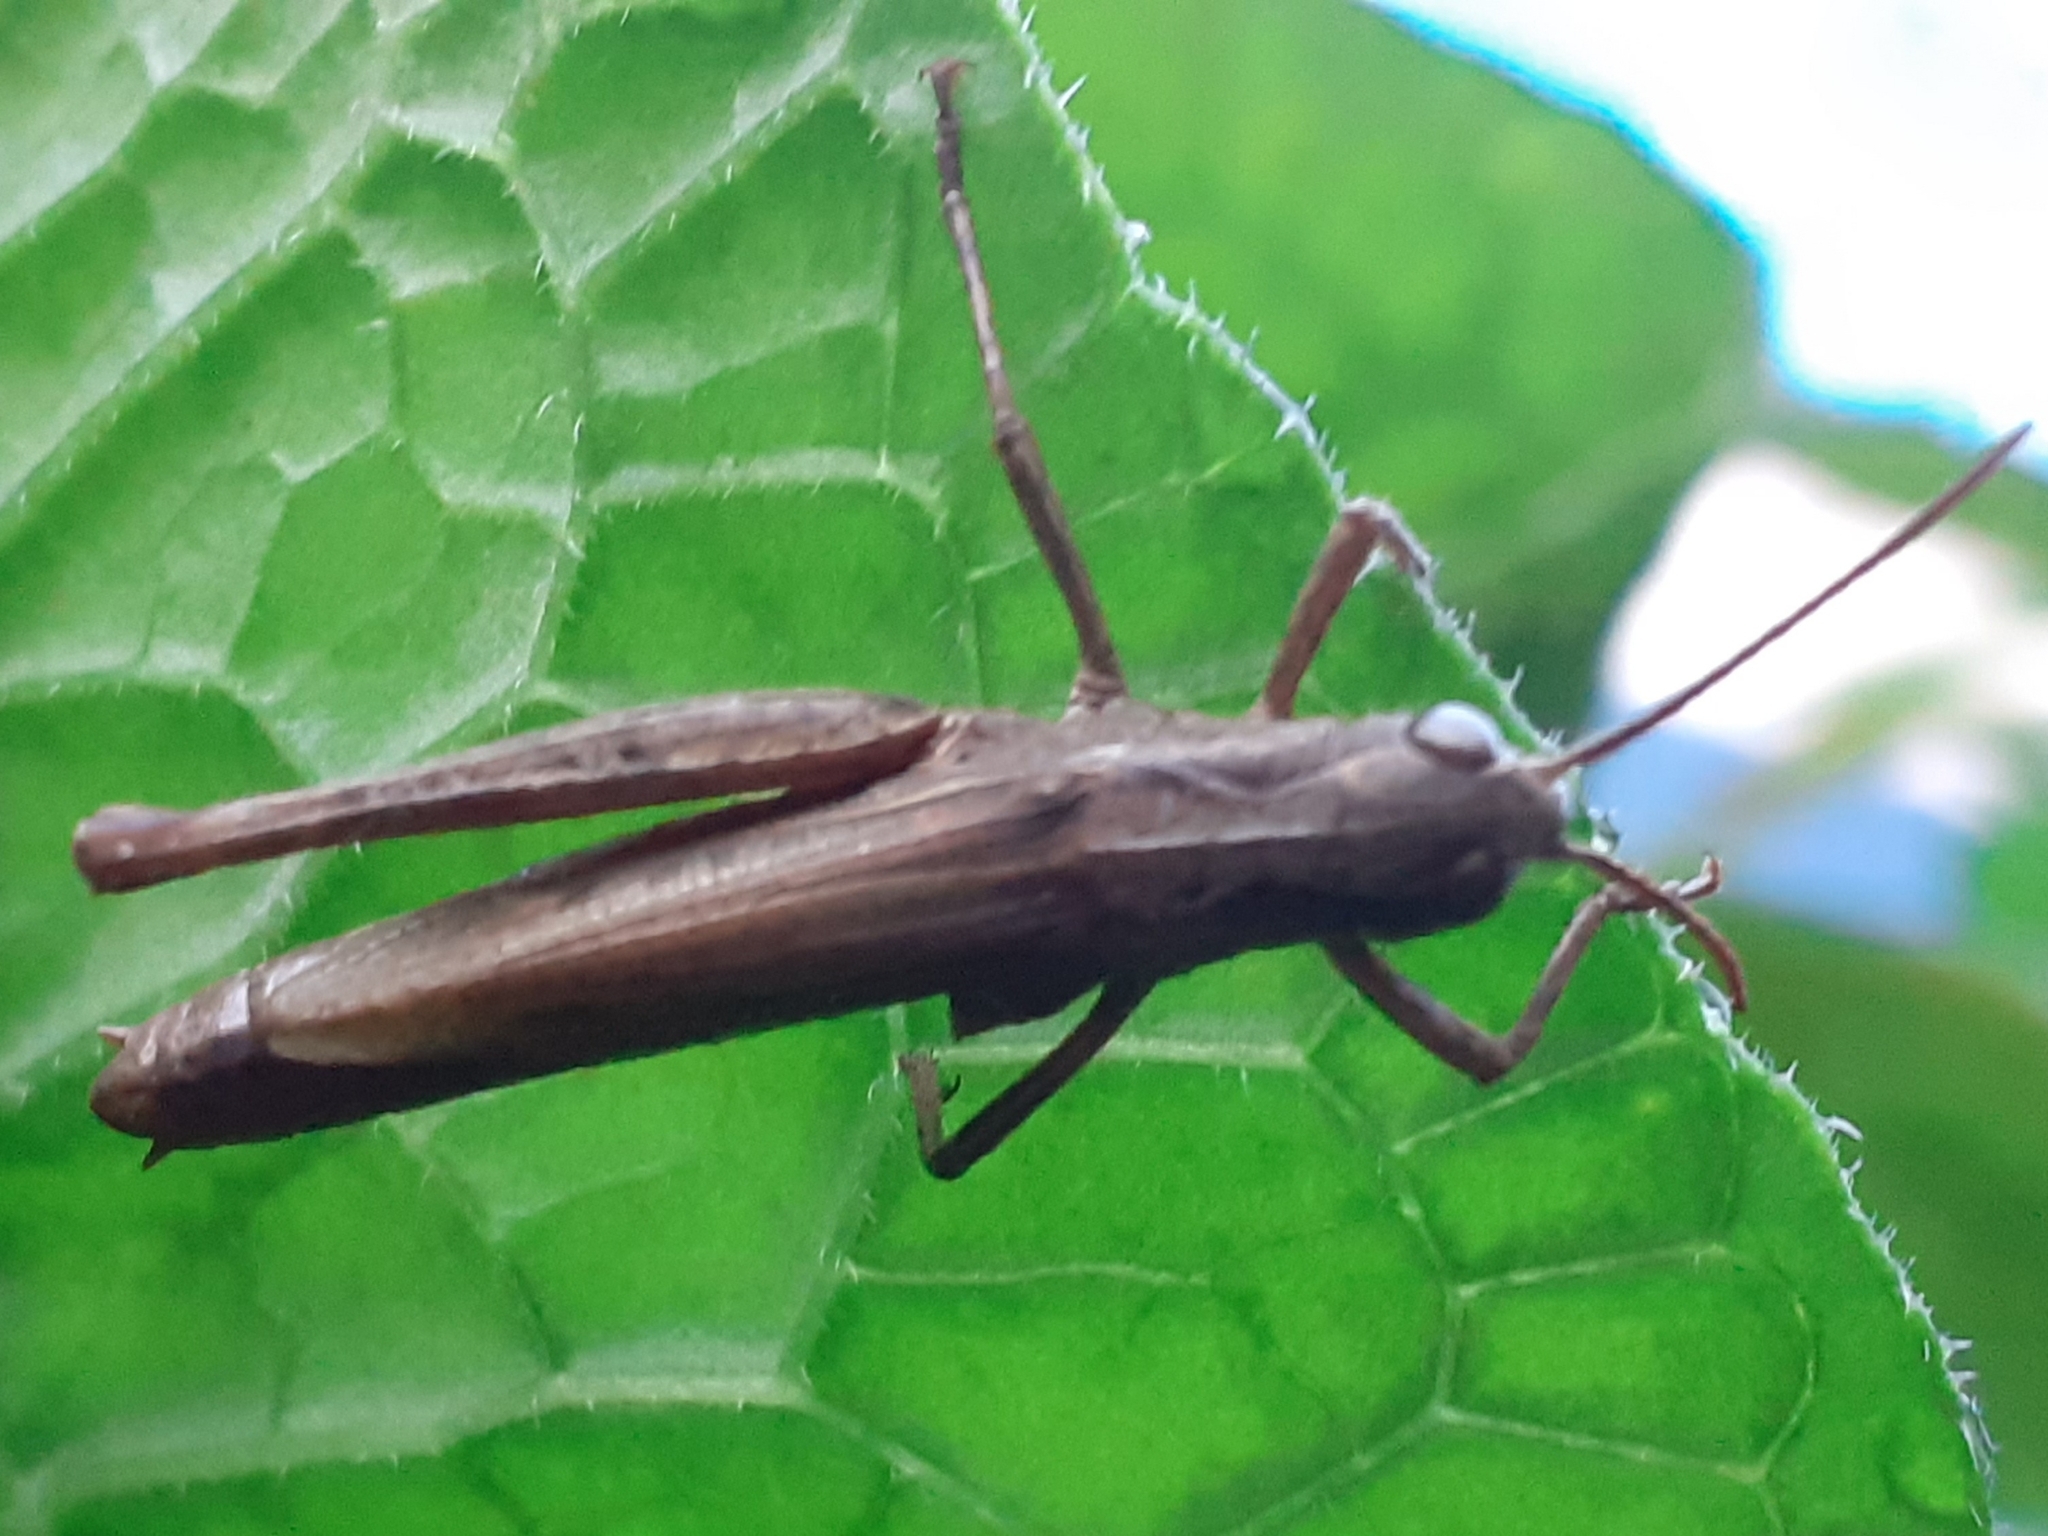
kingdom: Animalia
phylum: Arthropoda
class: Insecta
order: Orthoptera
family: Acrididae
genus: Chorthippus
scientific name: Chorthippus apricarius
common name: Upland field grasshopper
